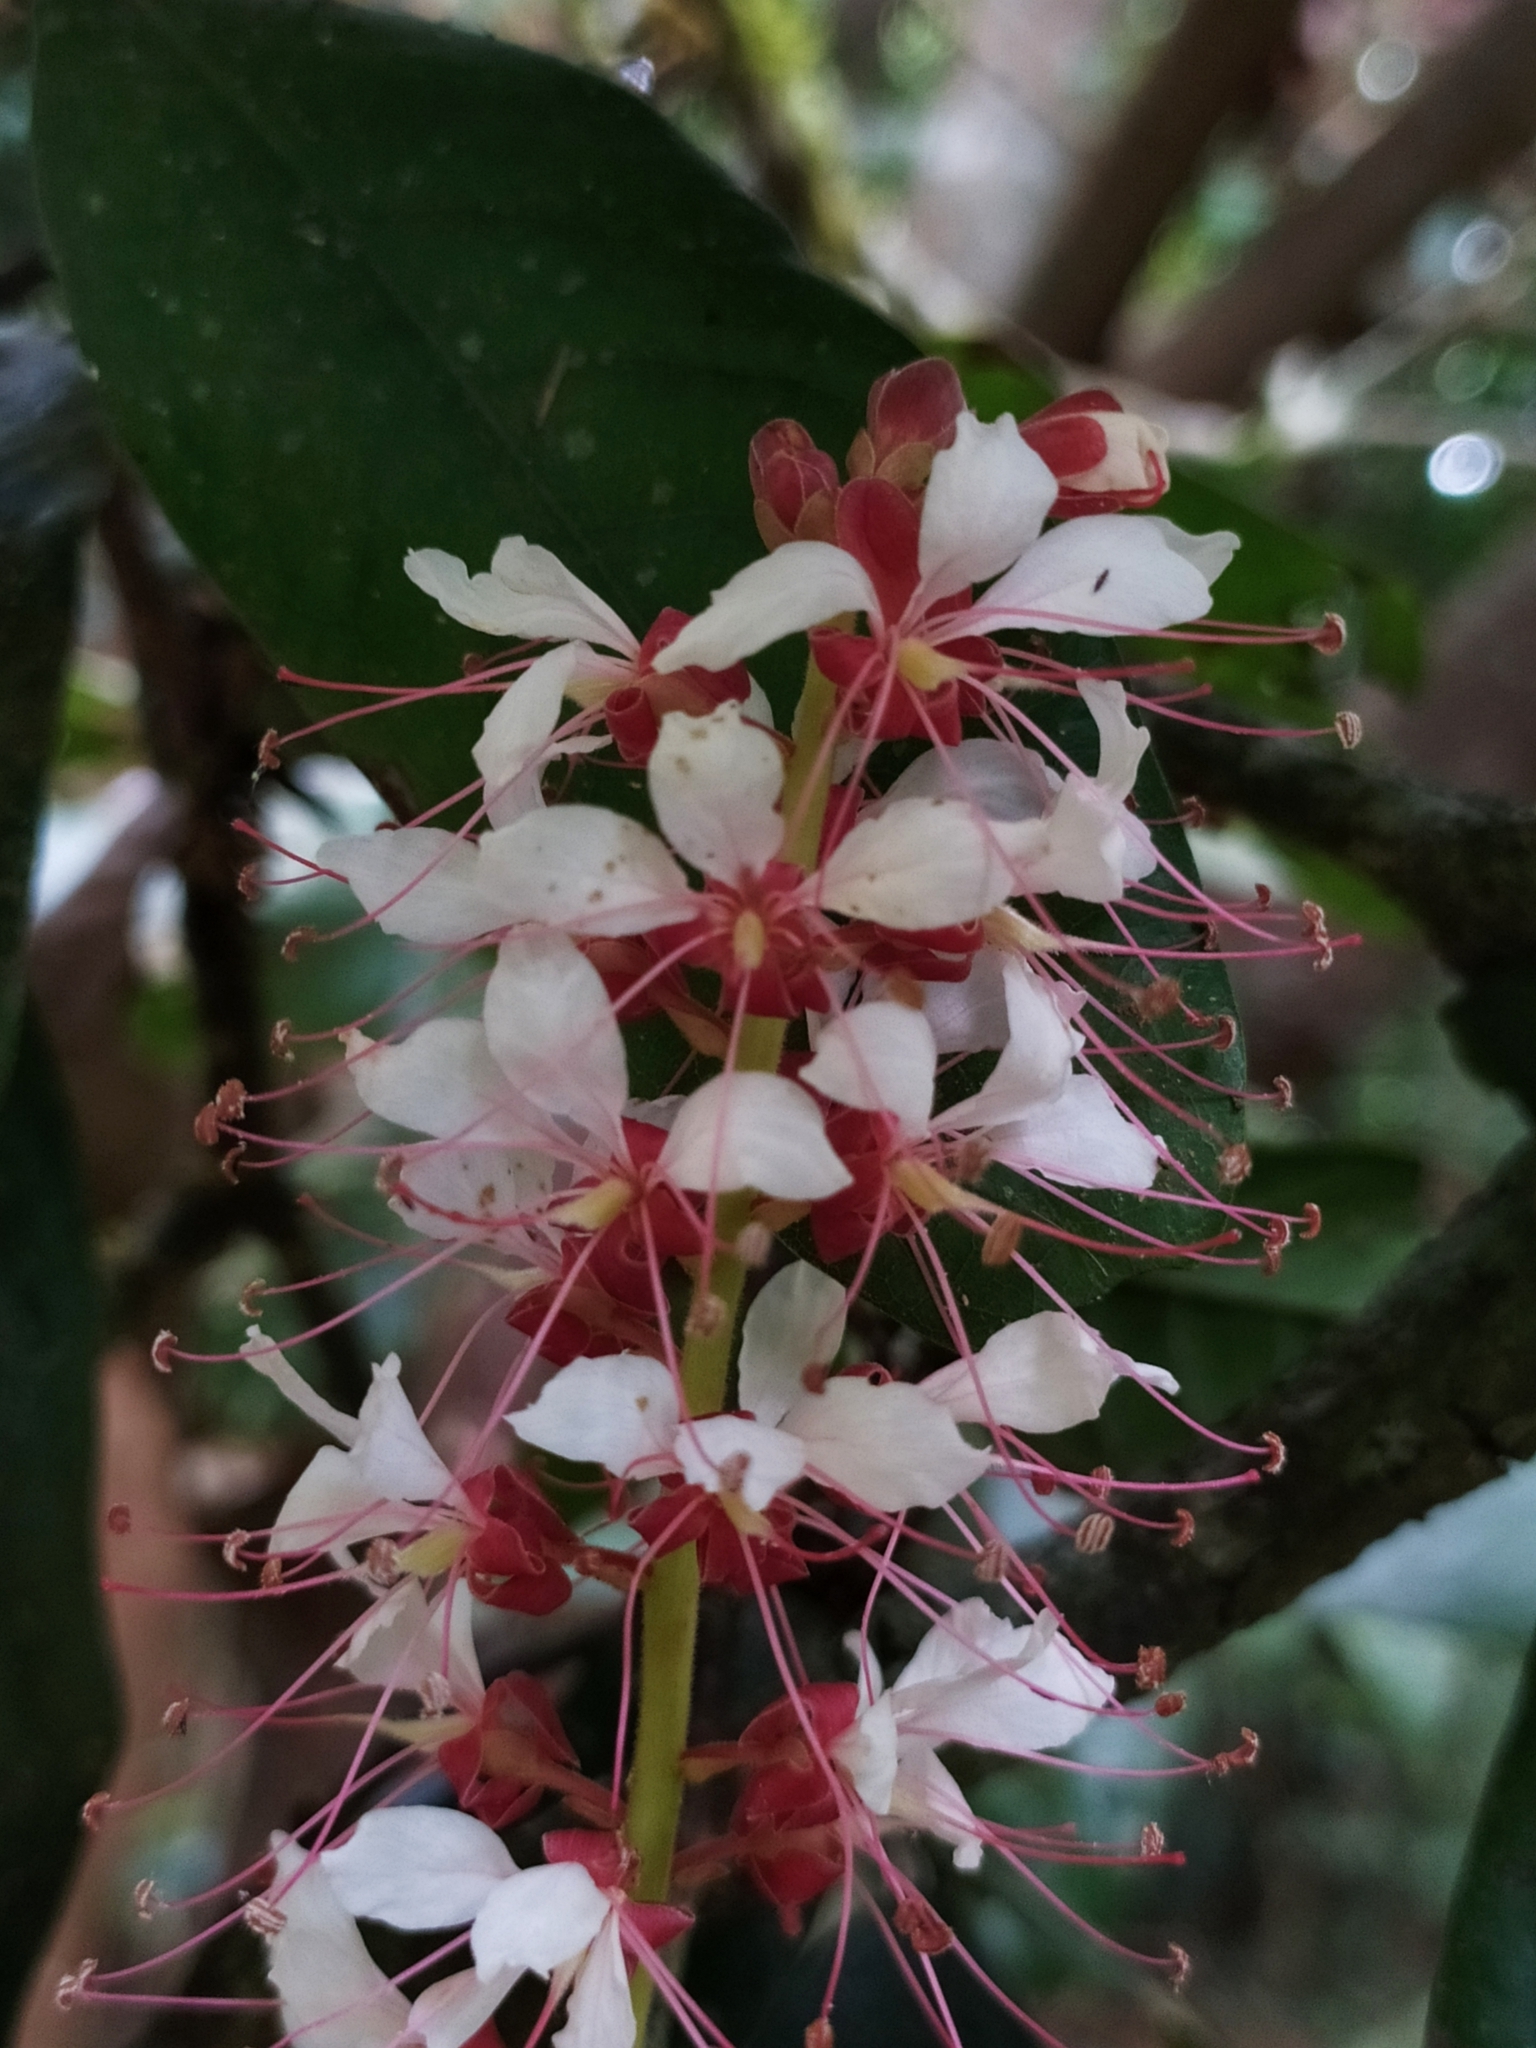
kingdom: Plantae
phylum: Tracheophyta
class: Magnoliopsida
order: Fabales
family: Fabaceae
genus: Humboldtia
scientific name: Humboldtia brunonis
